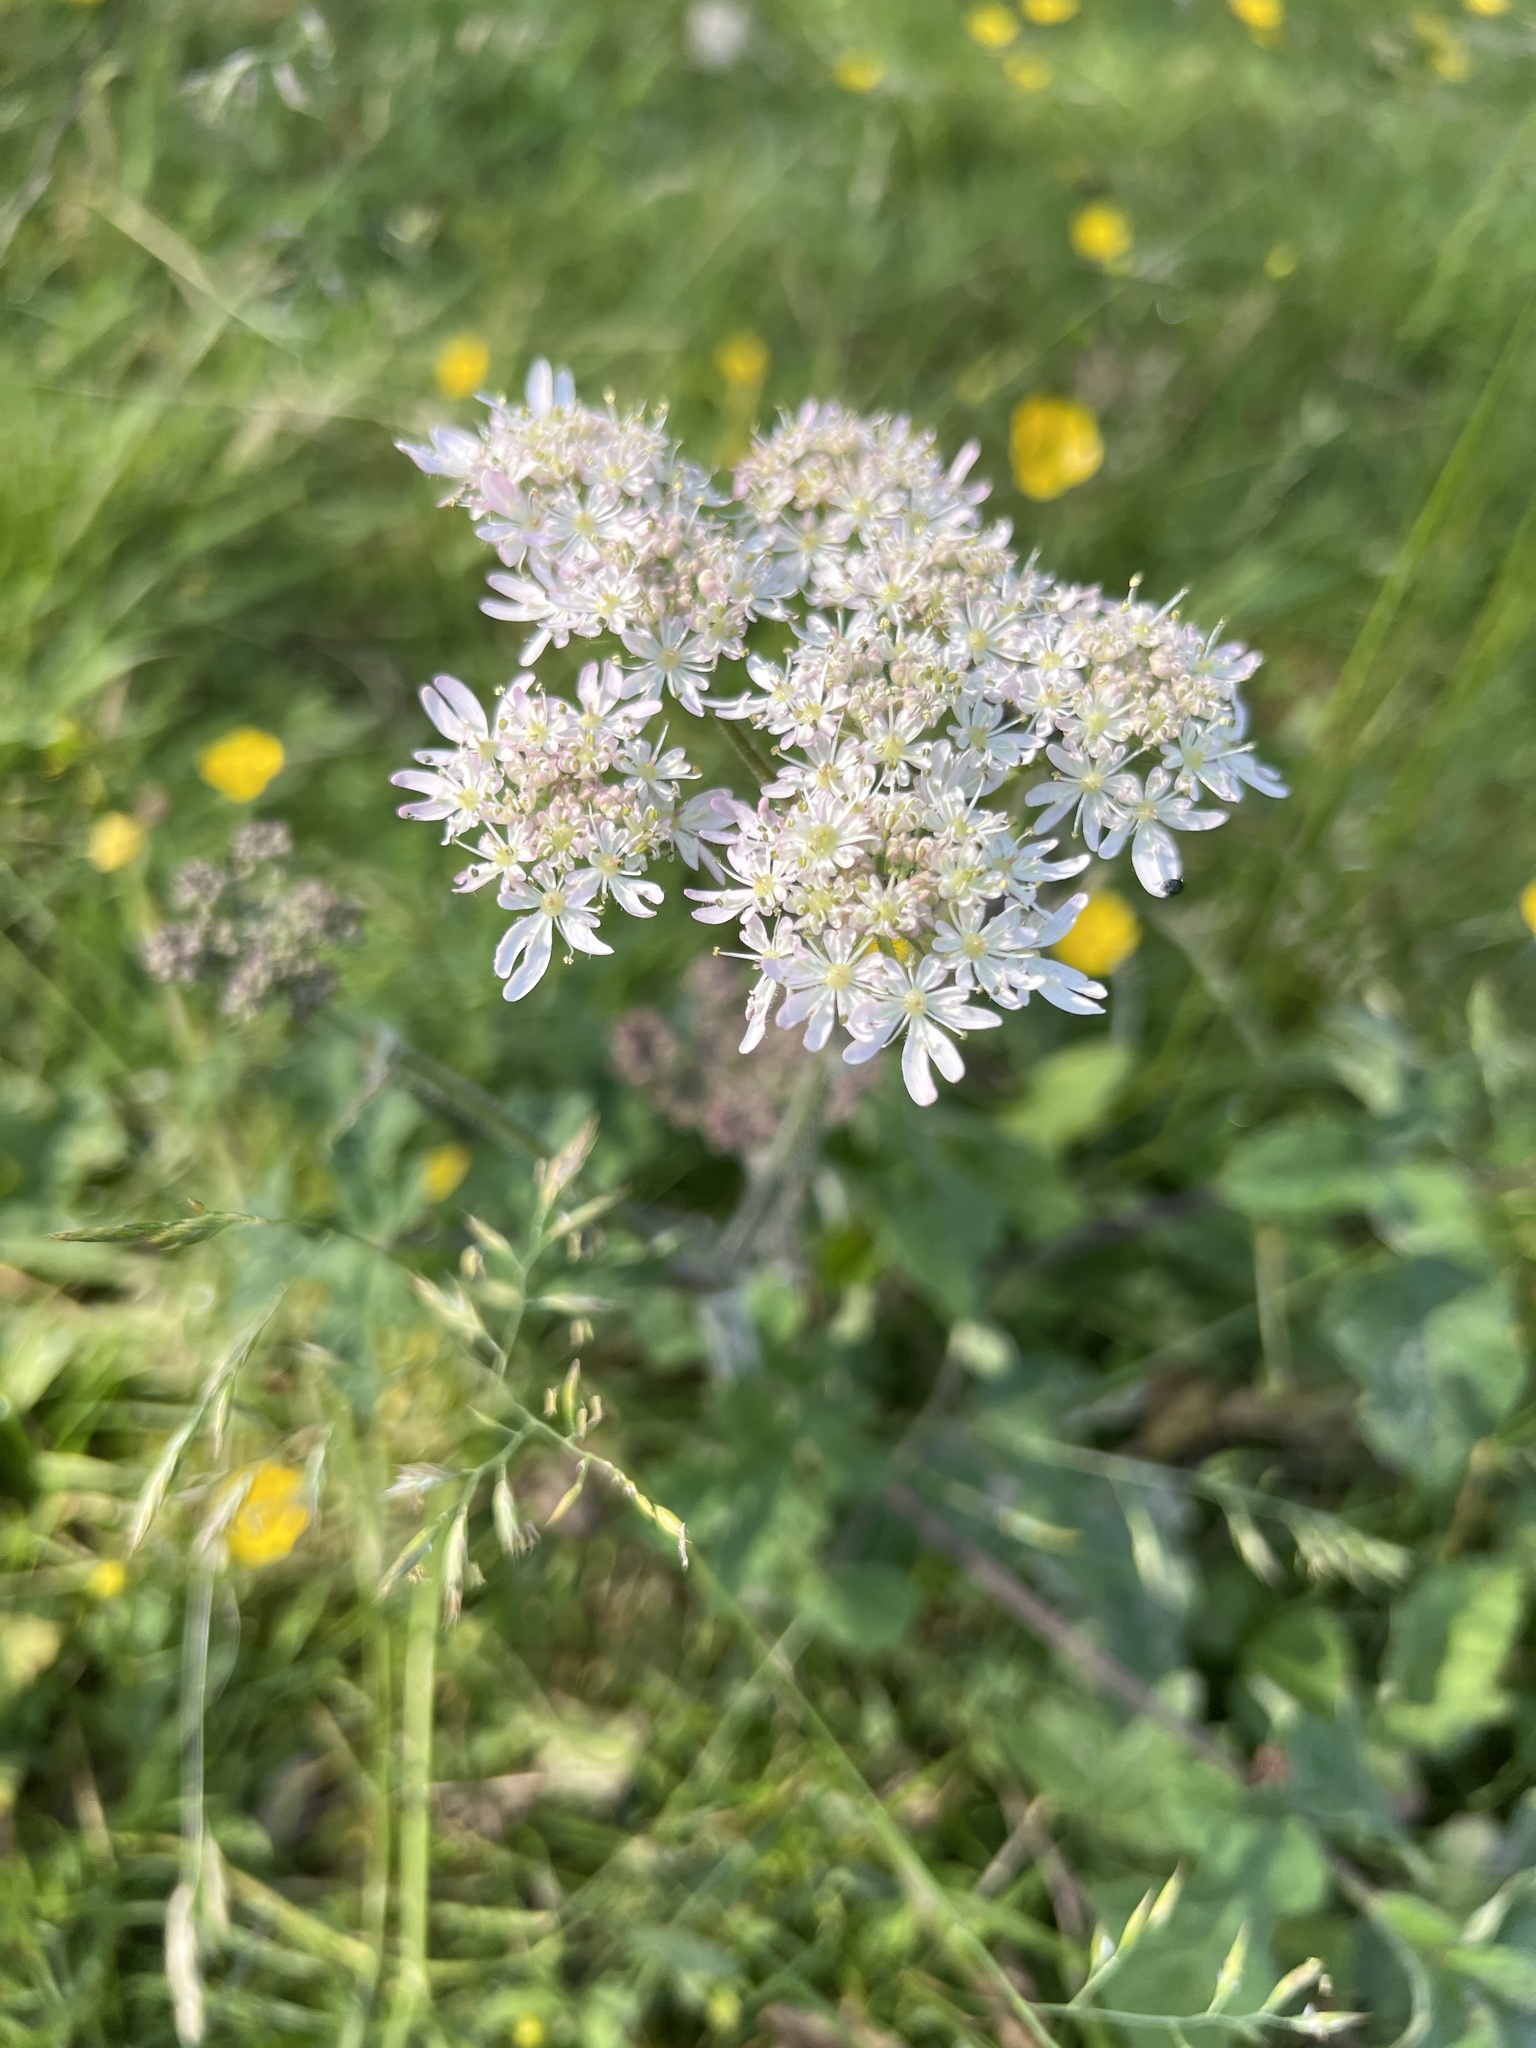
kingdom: Plantae
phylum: Tracheophyta
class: Magnoliopsida
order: Apiales
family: Apiaceae
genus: Heracleum
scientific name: Heracleum sphondylium
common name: Hogweed
